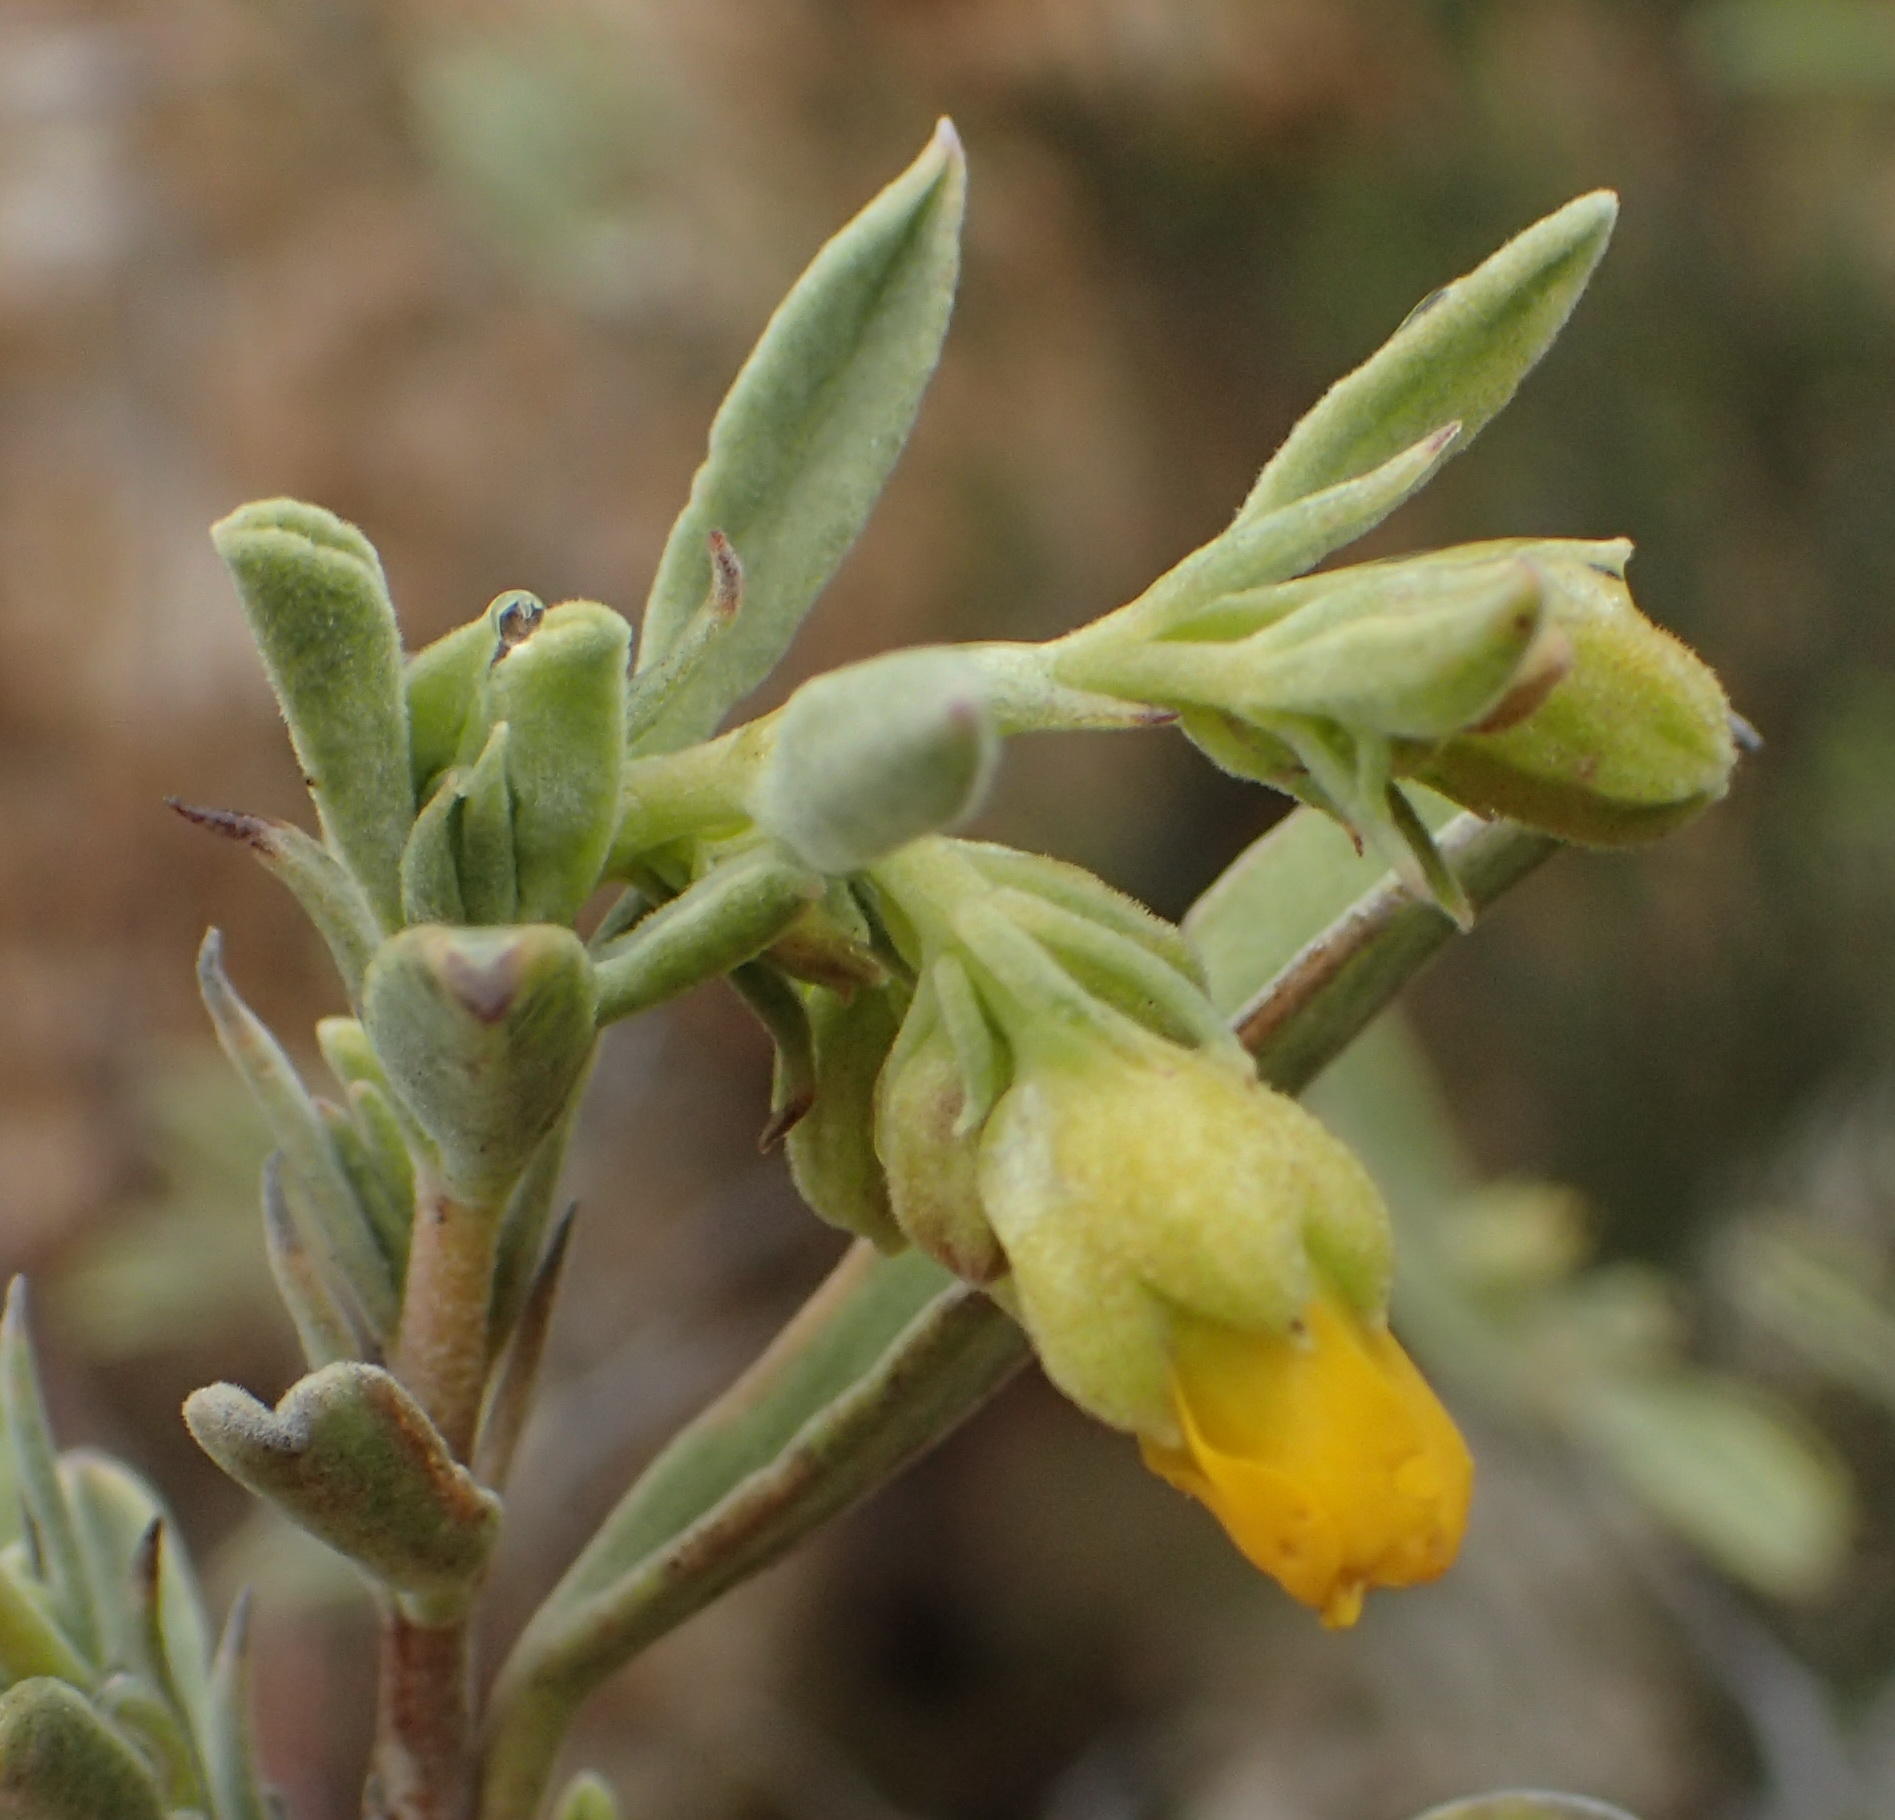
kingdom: Plantae
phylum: Tracheophyta
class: Magnoliopsida
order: Malvales
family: Malvaceae
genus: Hermannia
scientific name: Hermannia odorata
